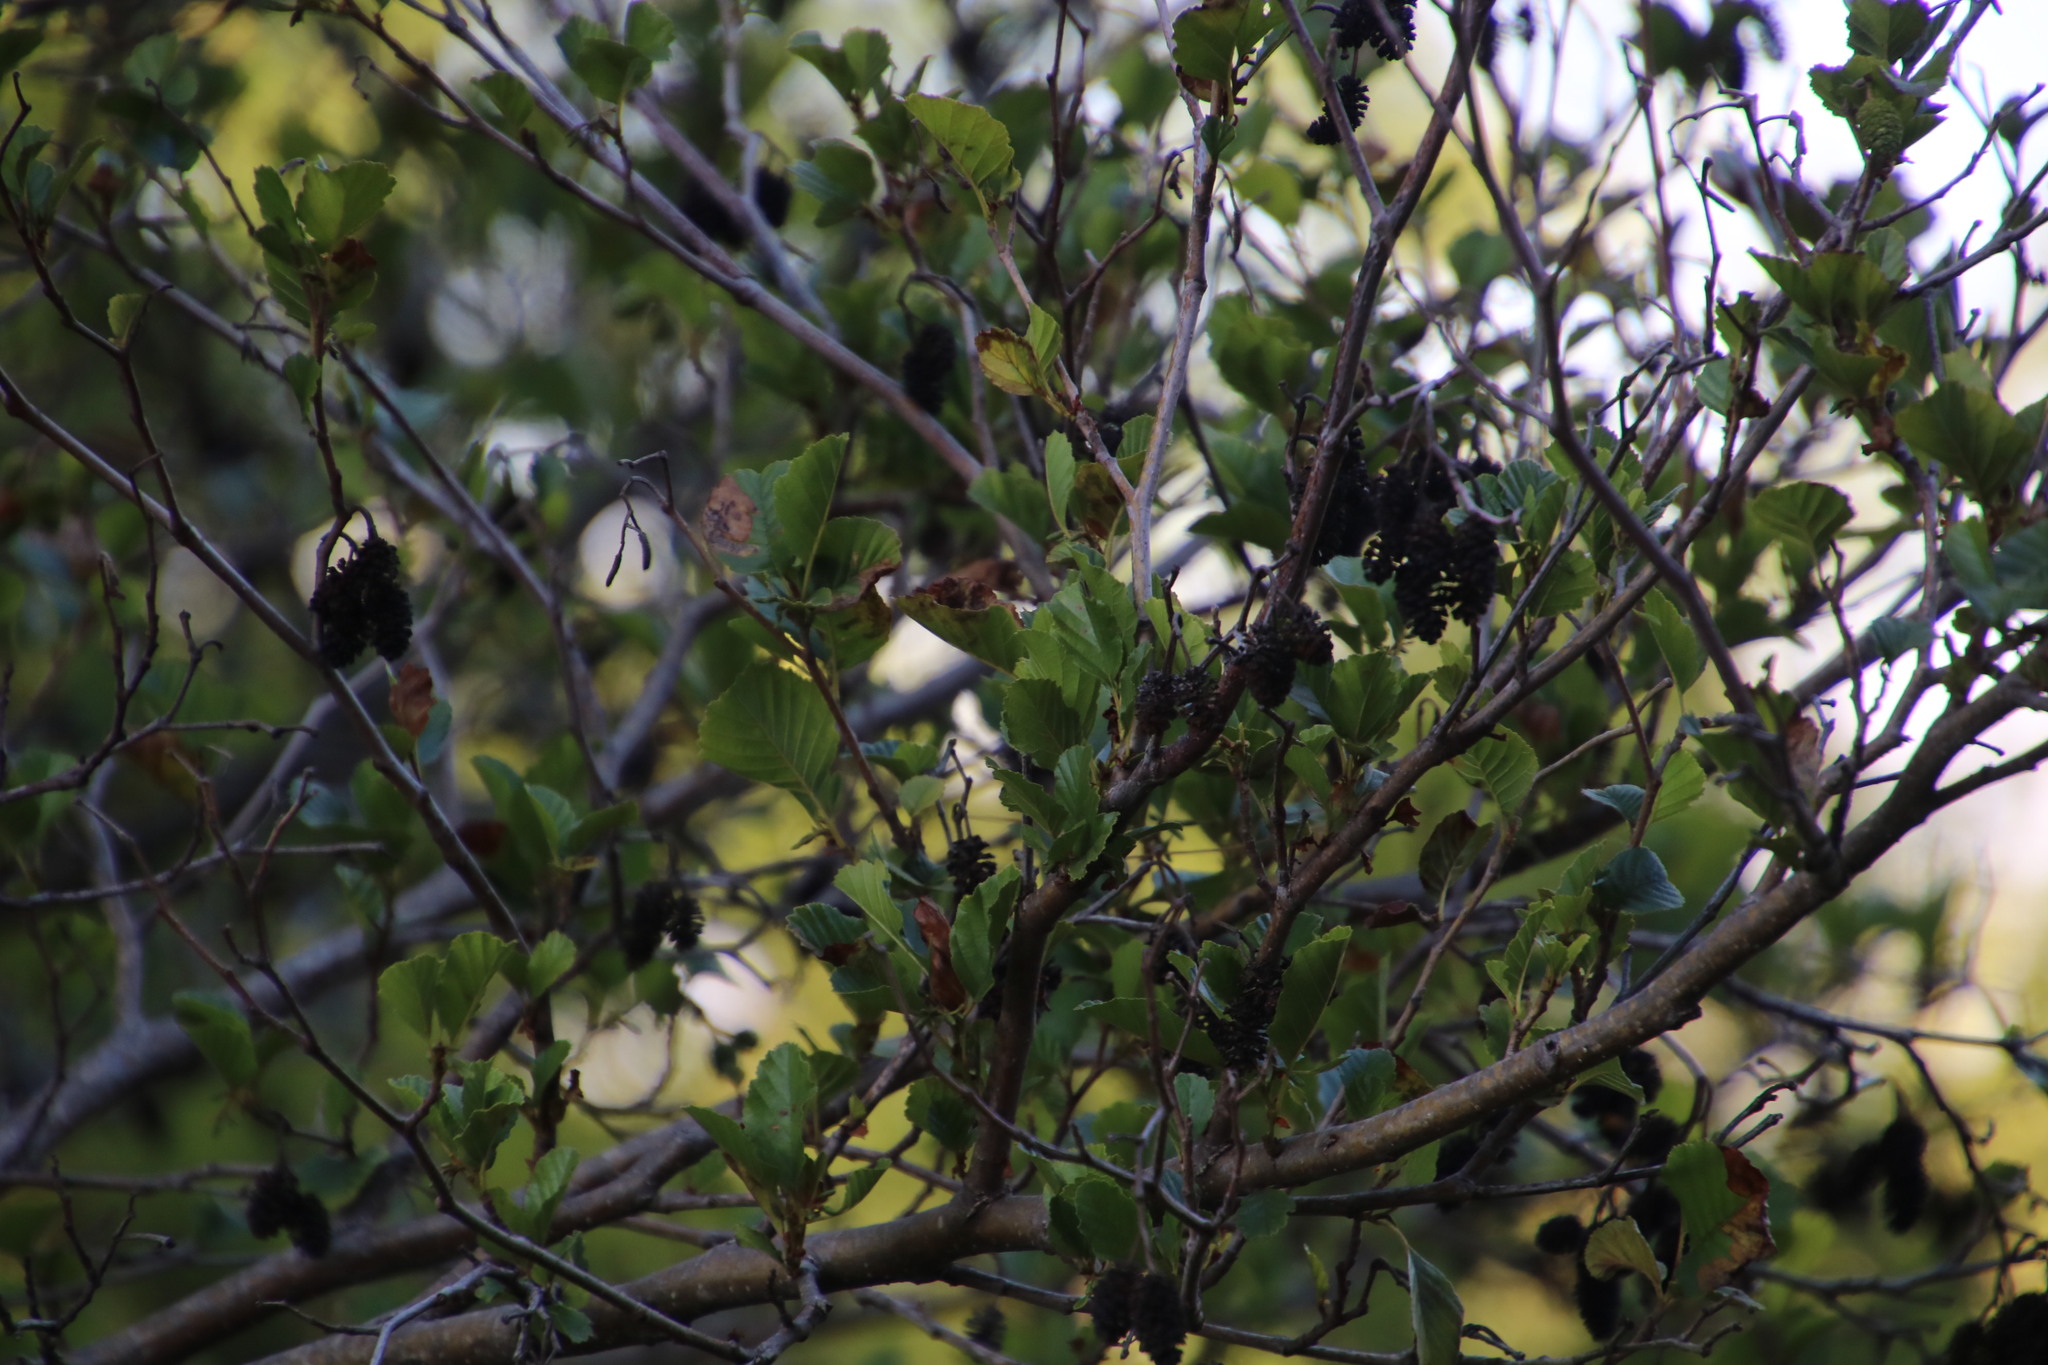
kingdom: Plantae
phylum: Tracheophyta
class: Magnoliopsida
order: Fagales
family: Betulaceae
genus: Alnus
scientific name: Alnus glutinosa
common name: Black alder
